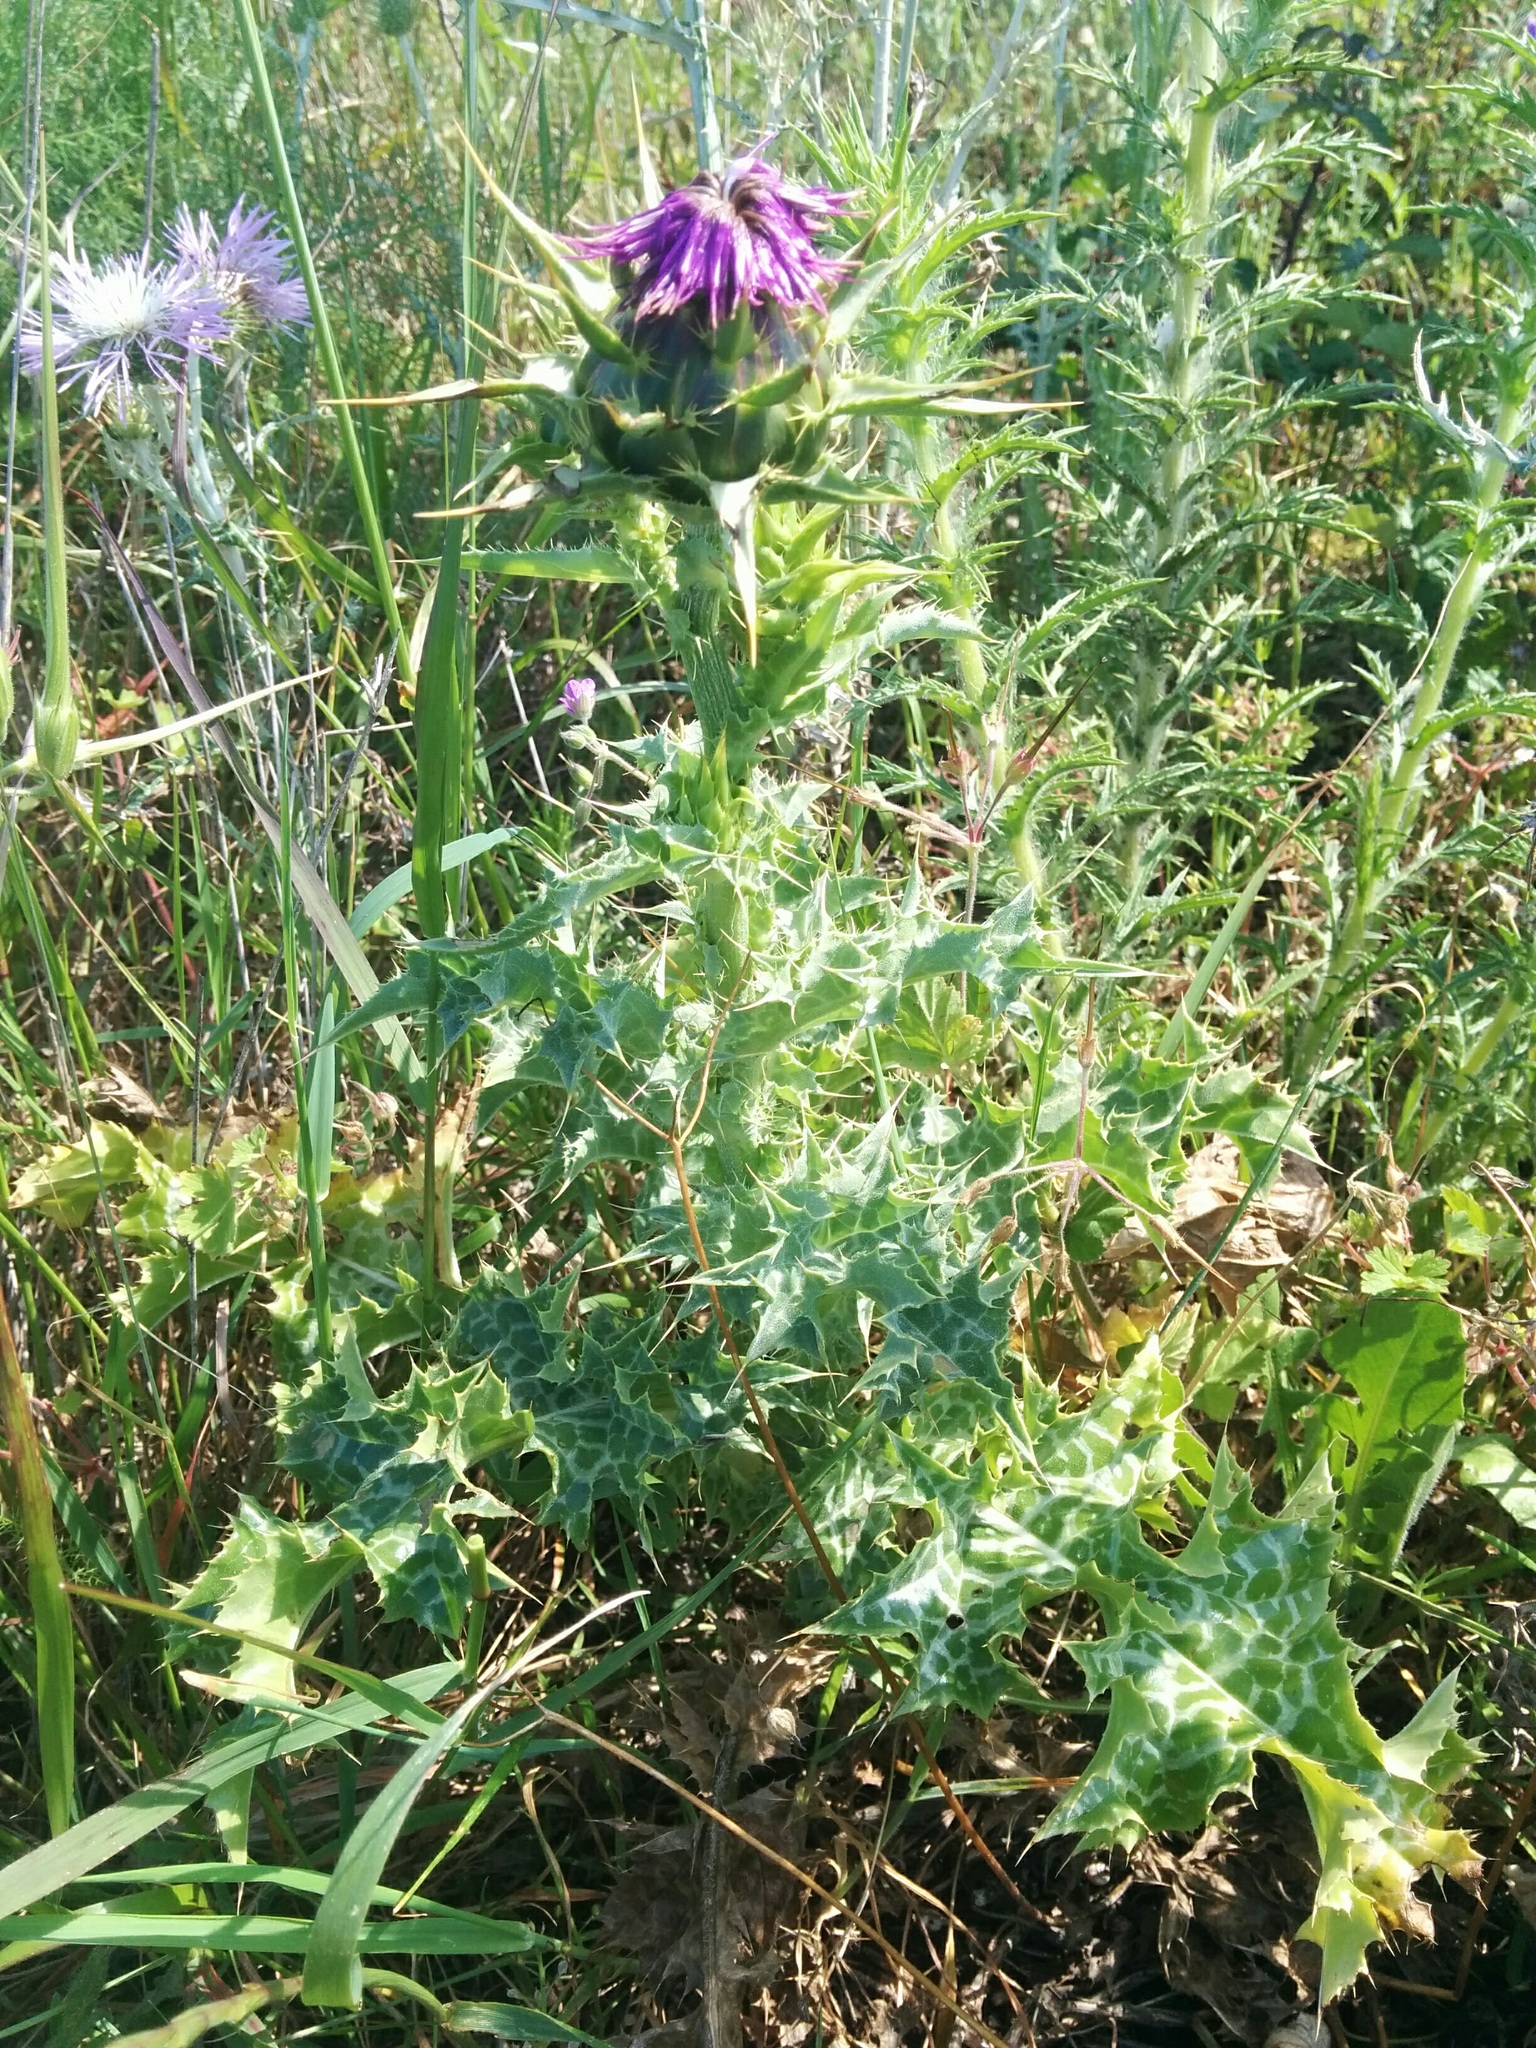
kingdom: Plantae
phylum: Tracheophyta
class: Magnoliopsida
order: Asterales
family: Asteraceae
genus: Silybum
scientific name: Silybum marianum
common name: Milk thistle
